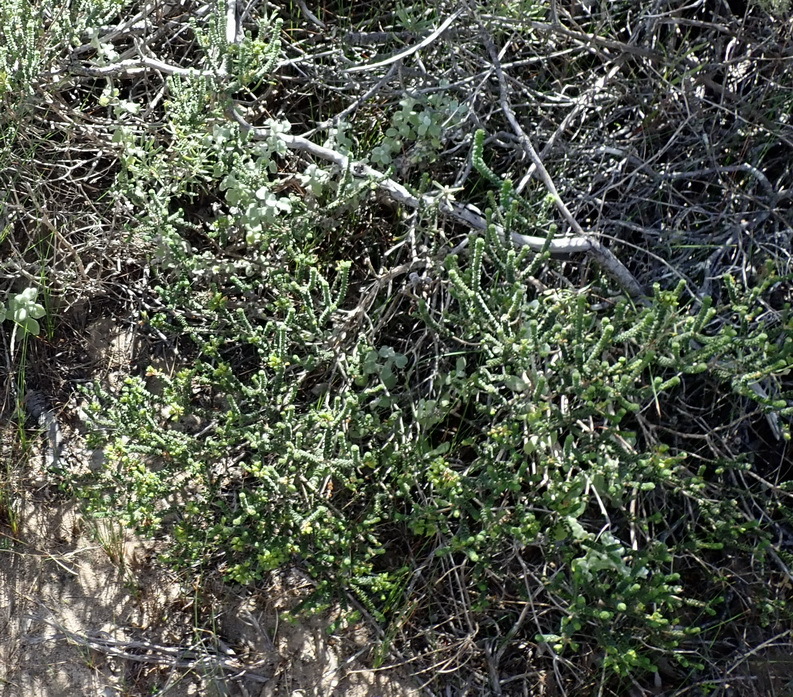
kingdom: Plantae
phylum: Tracheophyta
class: Magnoliopsida
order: Sapindales
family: Rutaceae
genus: Agathosma
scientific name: Agathosma muirii
